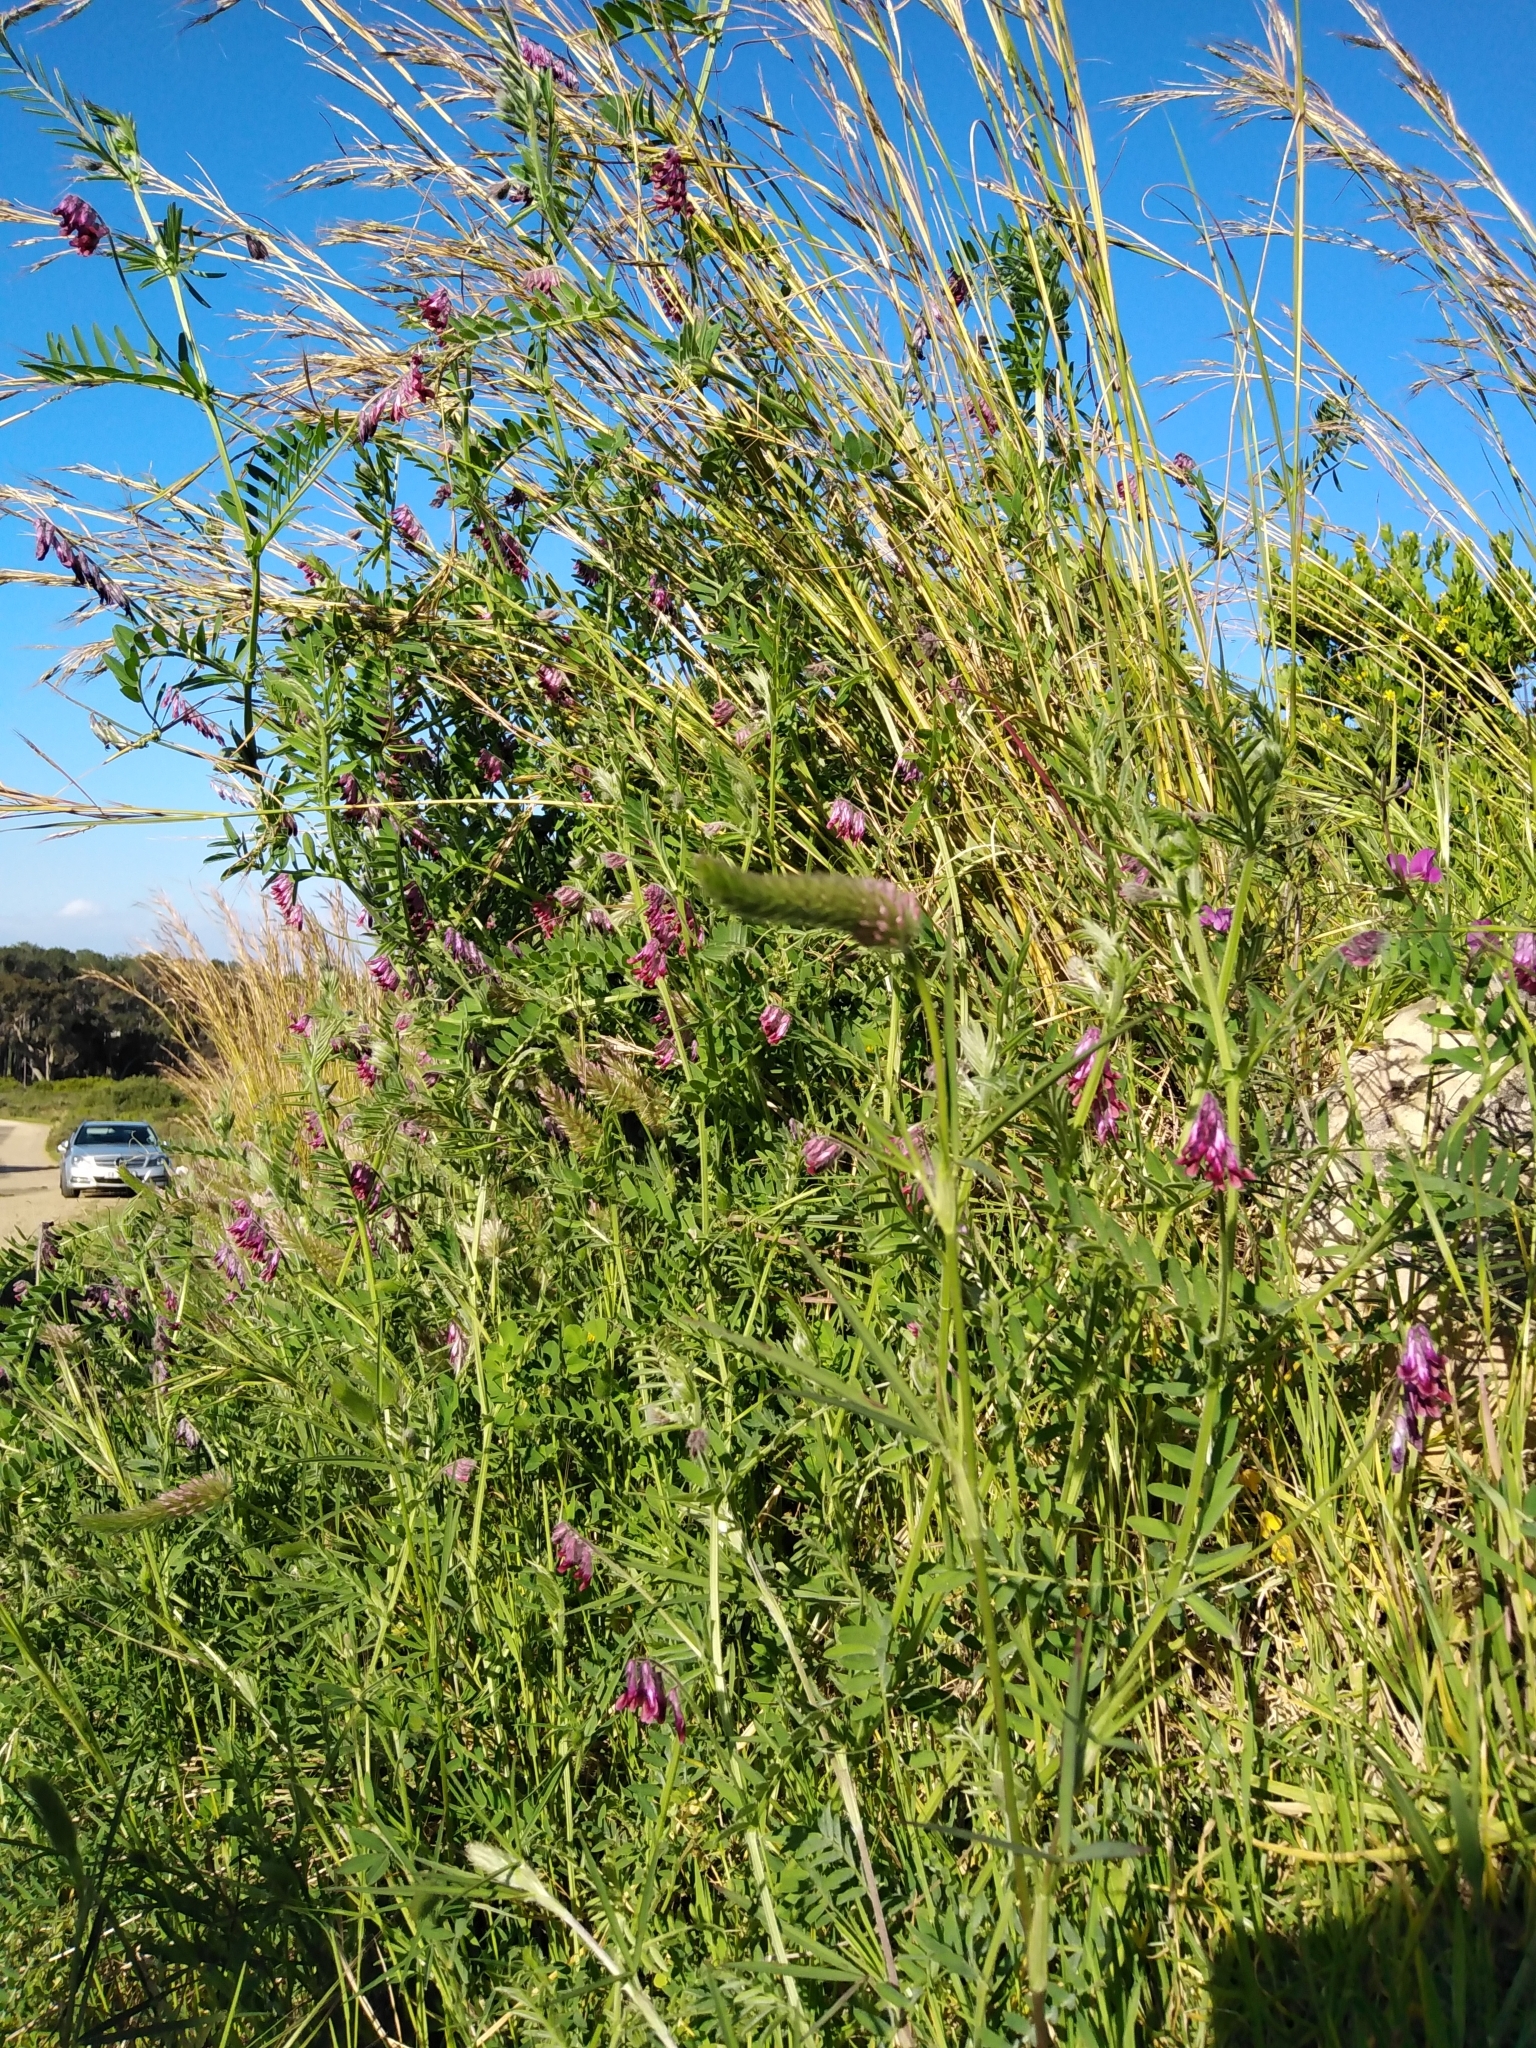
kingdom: Plantae
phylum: Tracheophyta
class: Magnoliopsida
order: Fabales
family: Fabaceae
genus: Trifolium
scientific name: Trifolium angustifolium
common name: Narrow clover
